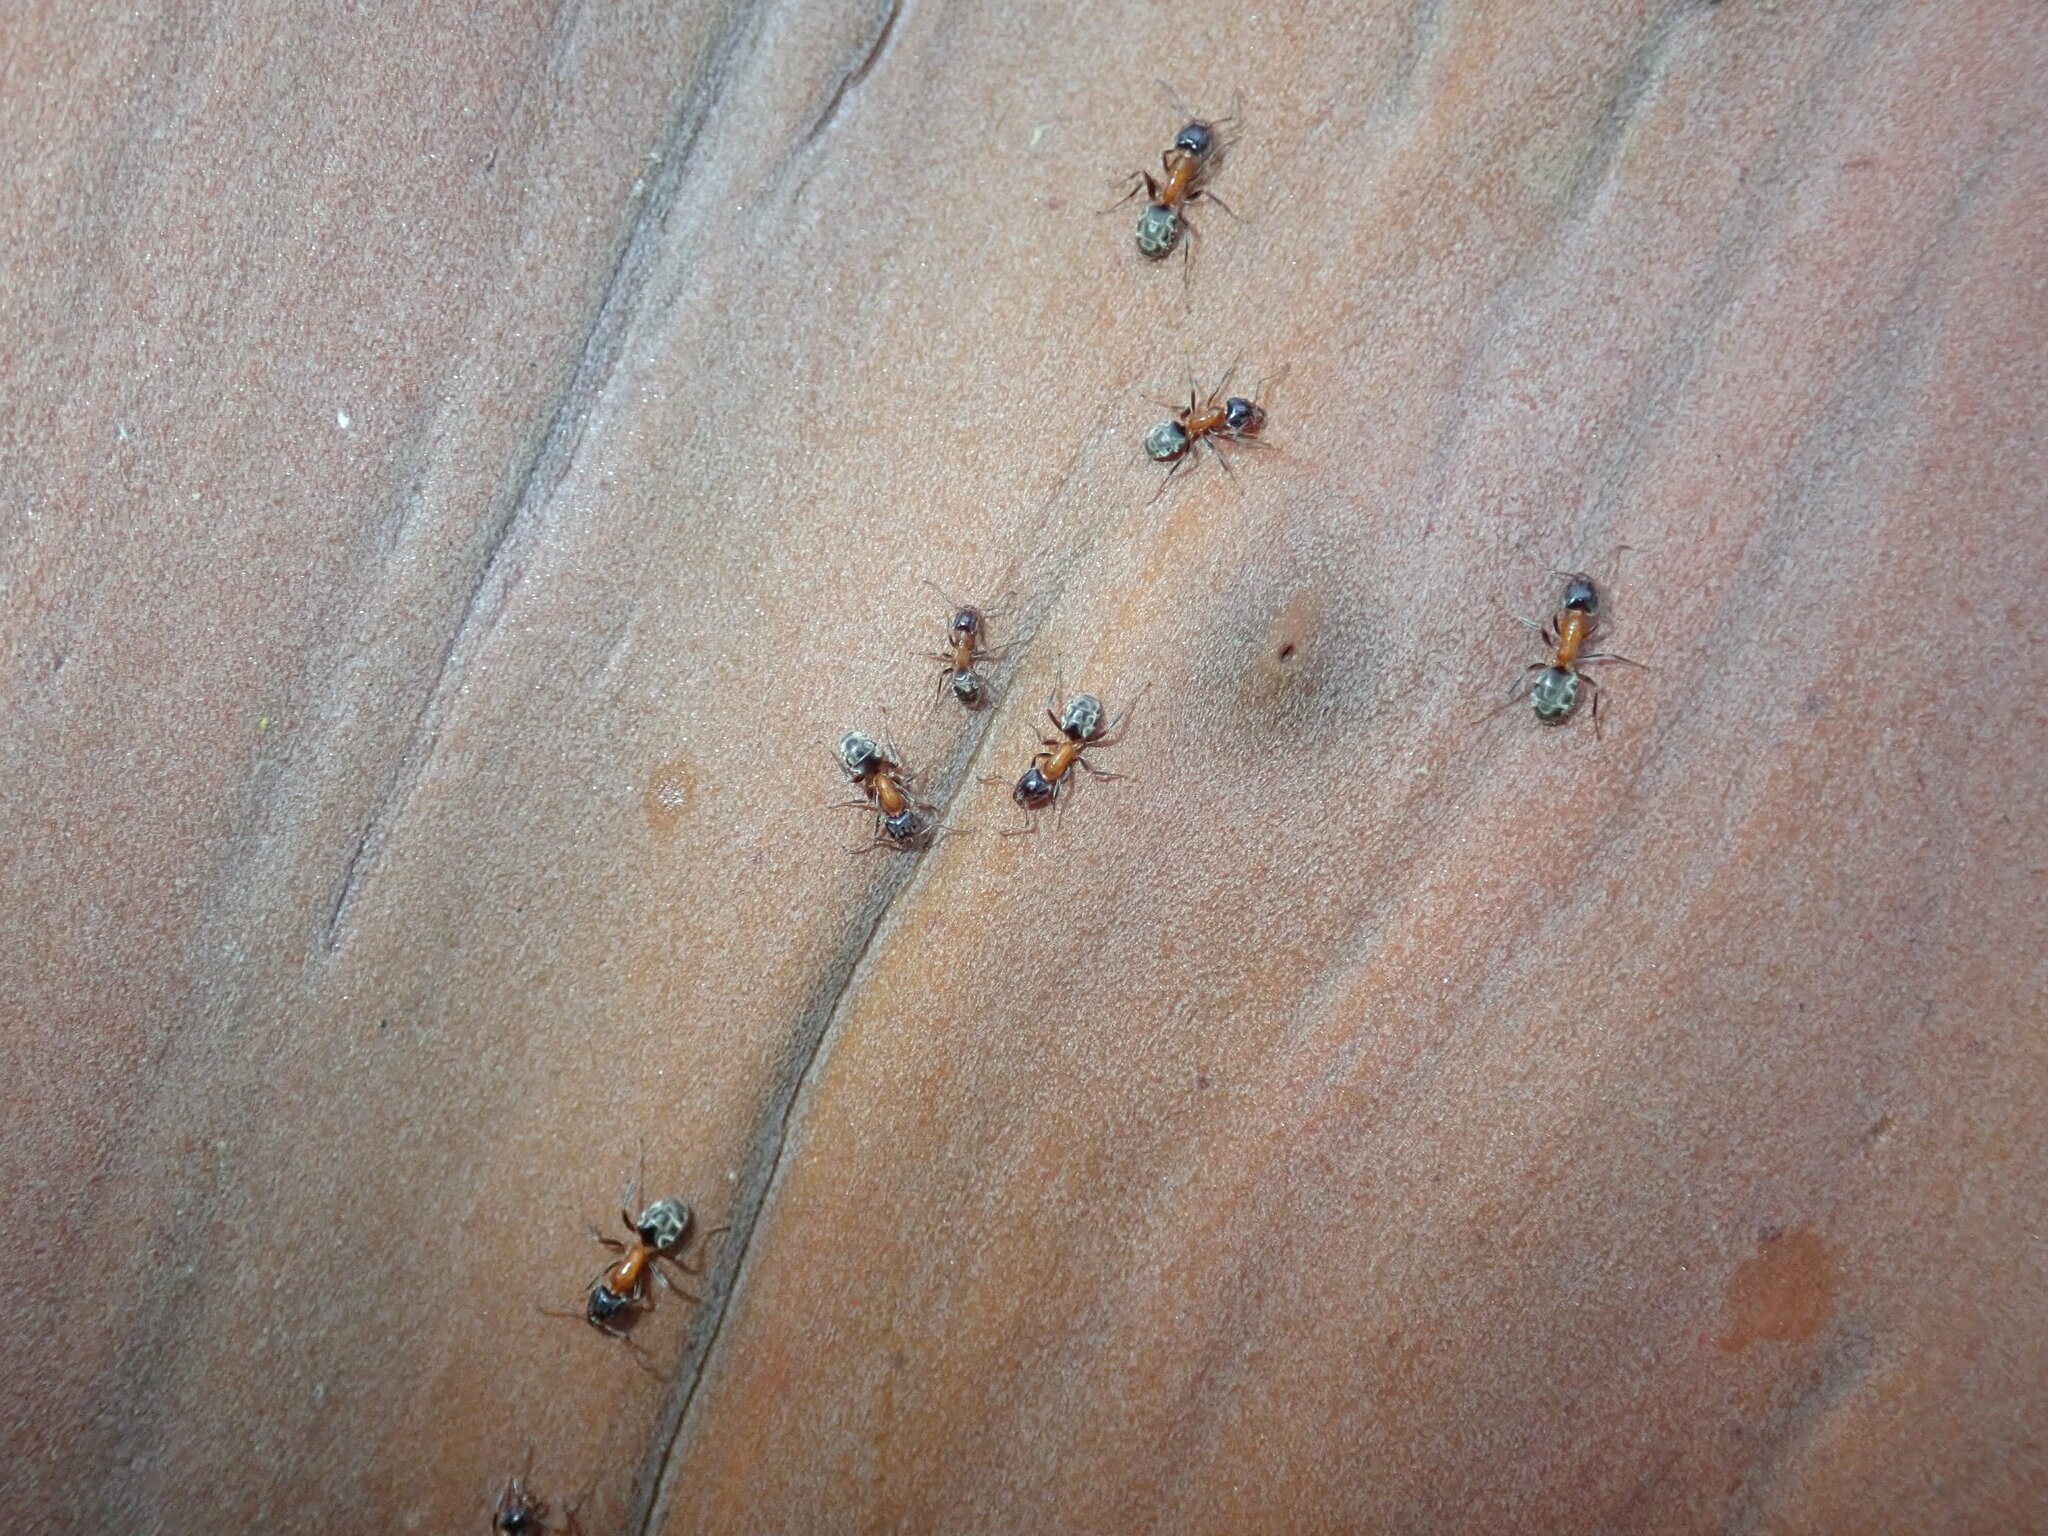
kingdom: Animalia
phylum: Arthropoda
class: Insecta
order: Hymenoptera
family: Formicidae
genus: Liometopum
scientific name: Liometopum occidentale
